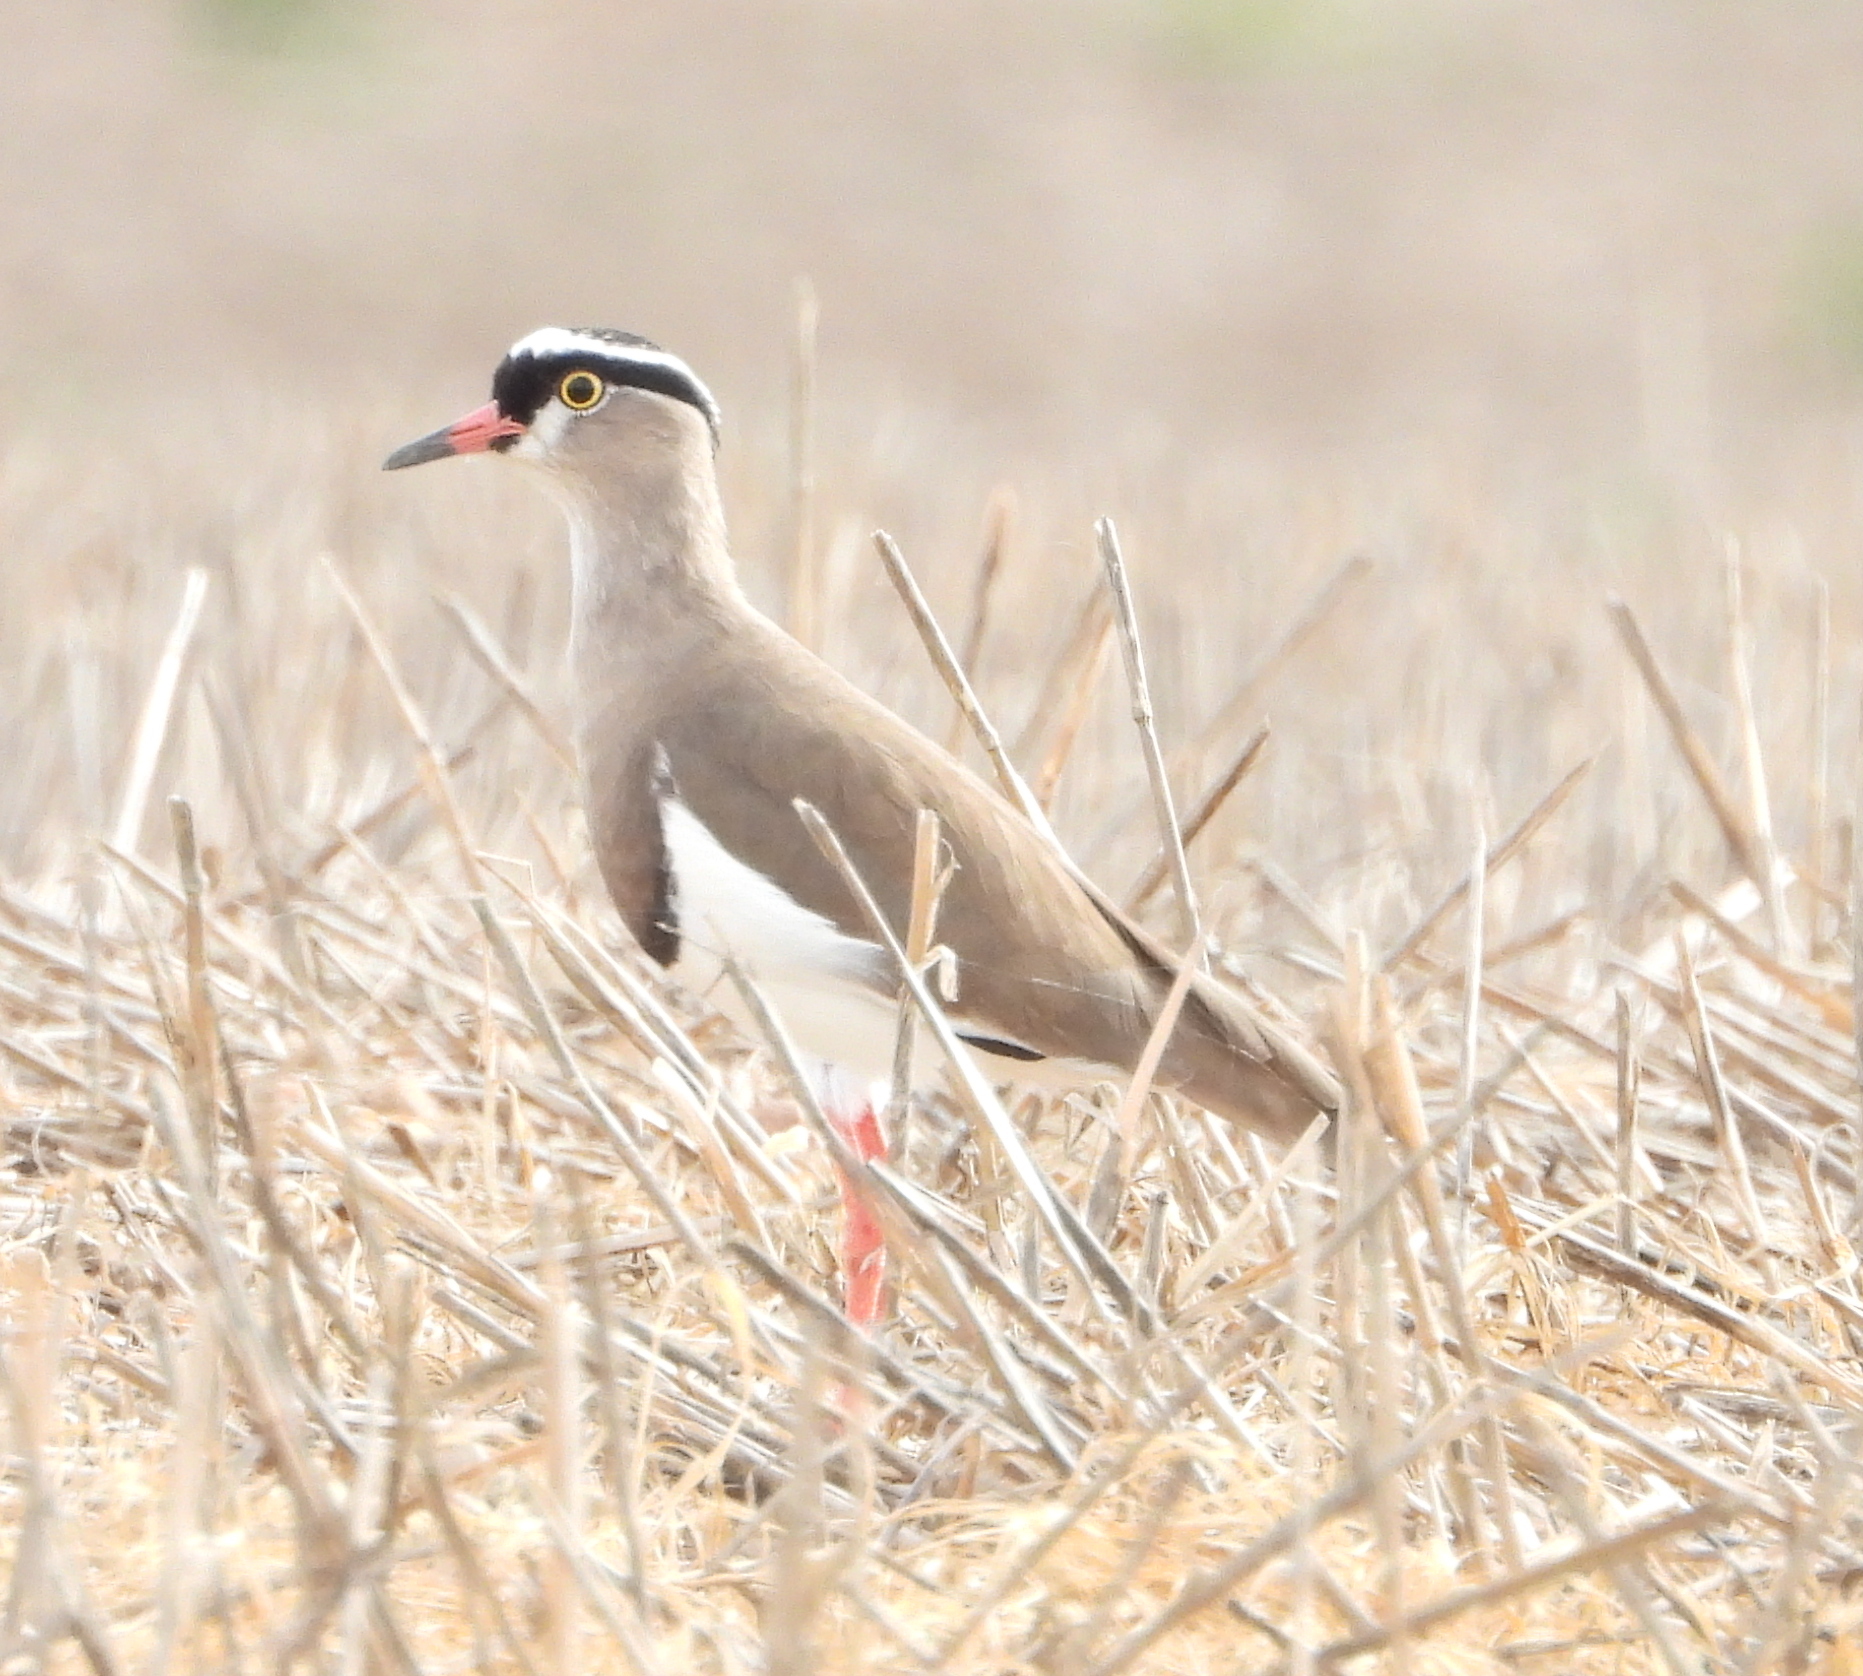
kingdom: Animalia
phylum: Chordata
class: Aves
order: Charadriiformes
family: Charadriidae
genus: Vanellus
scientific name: Vanellus coronatus
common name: Crowned lapwing
